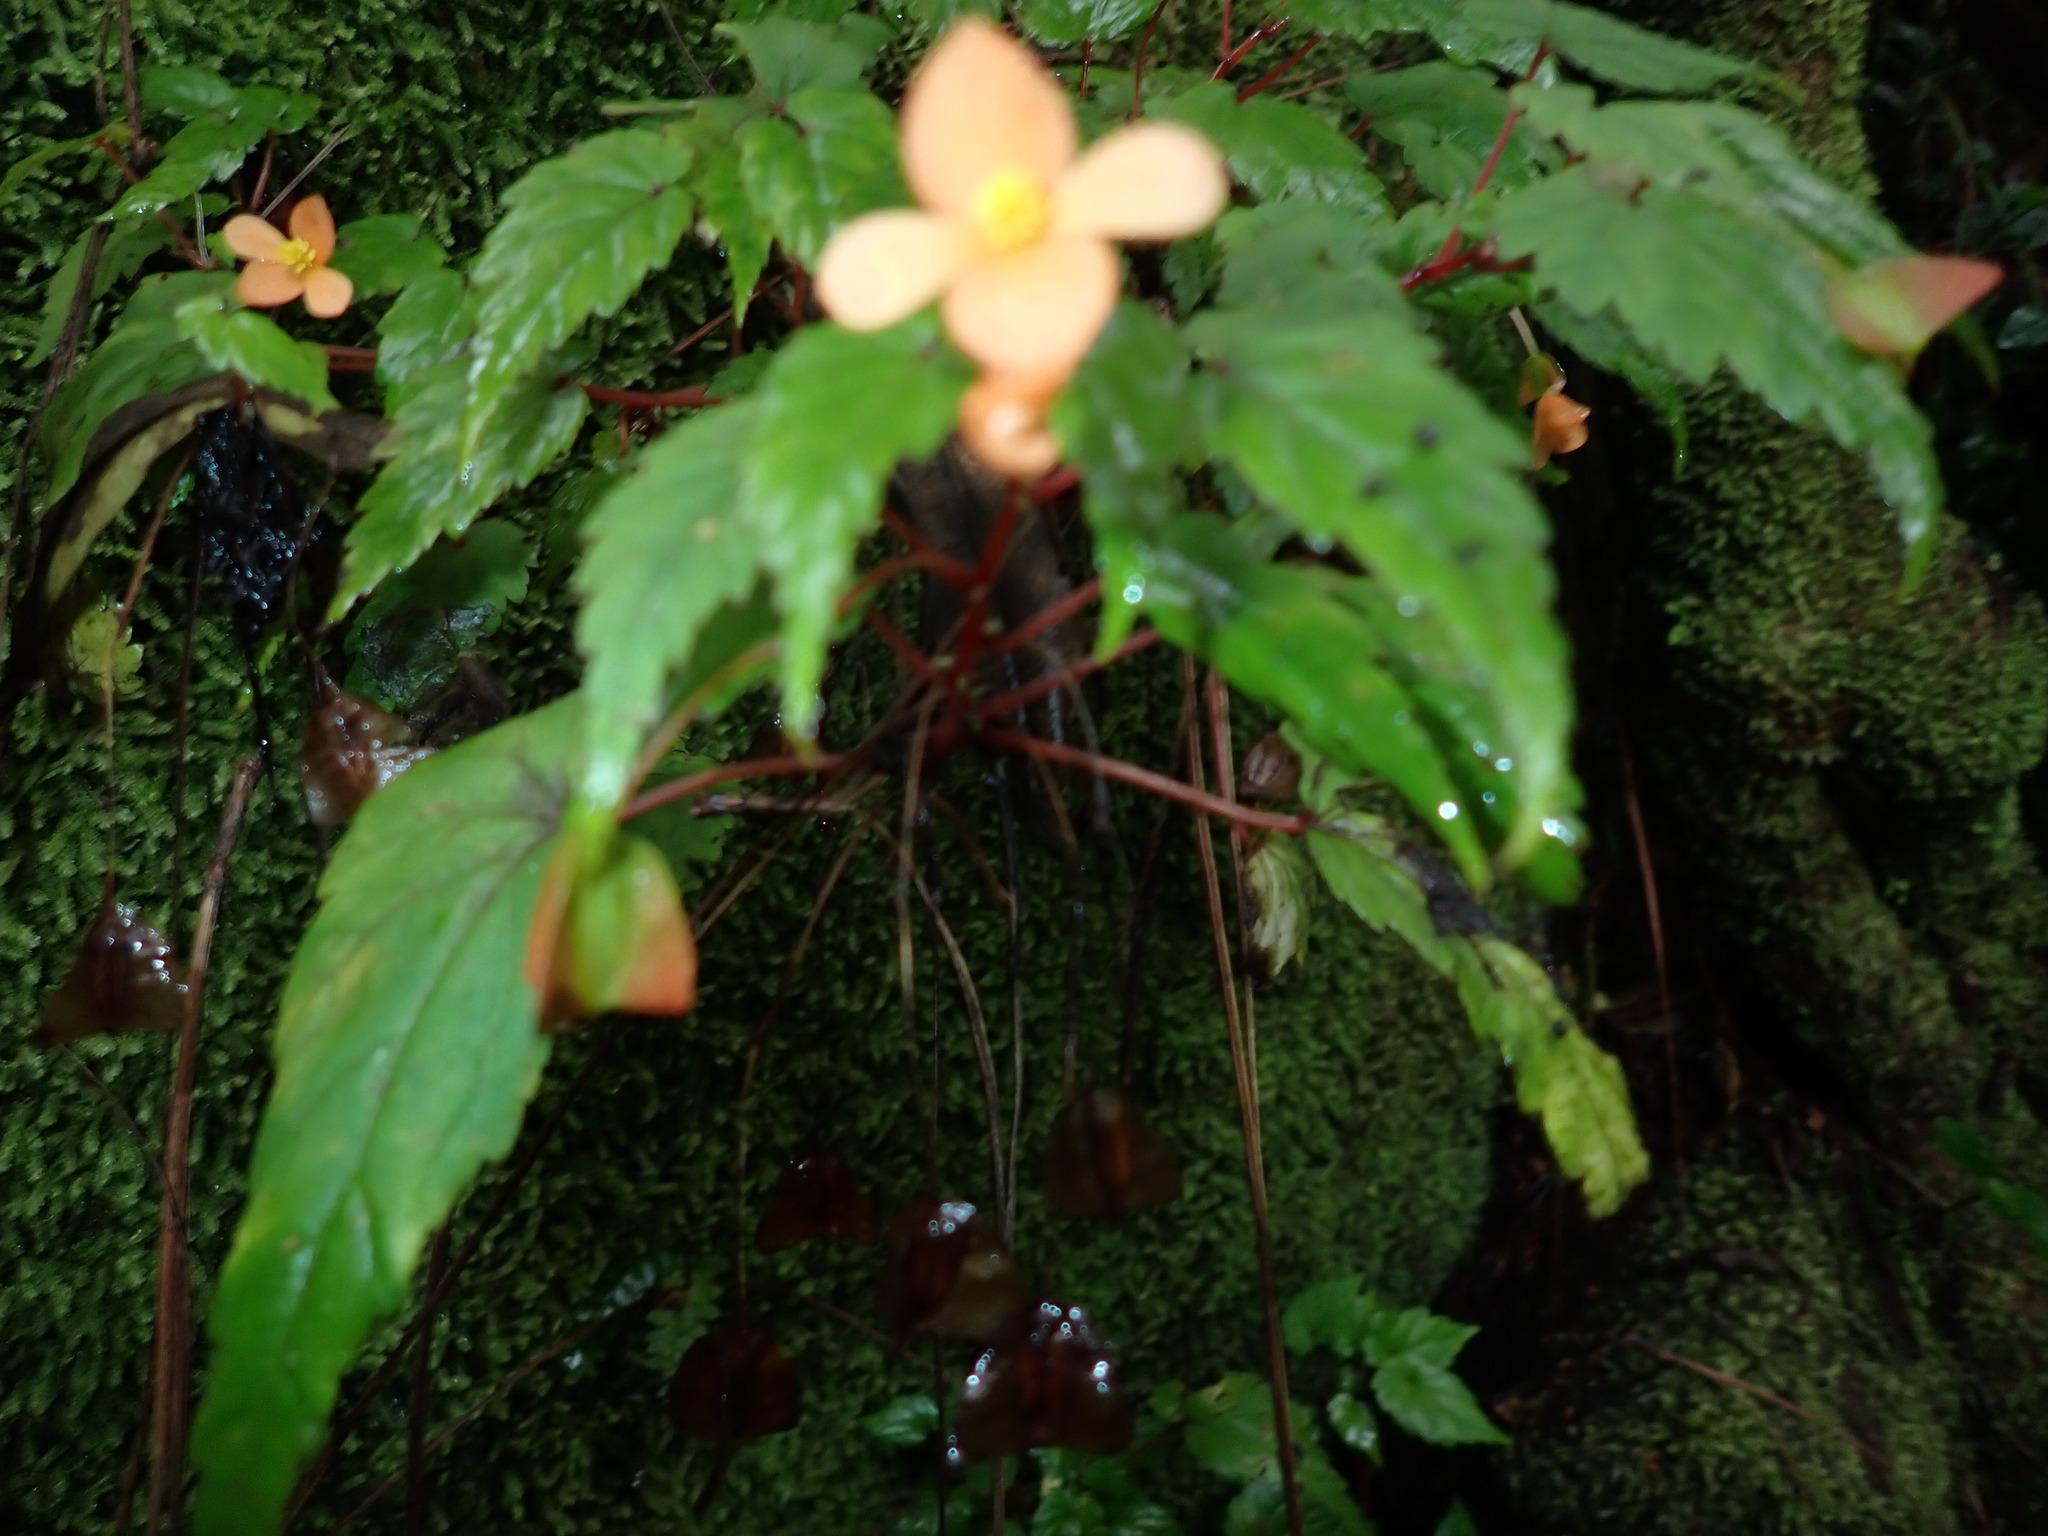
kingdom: Plantae
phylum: Tracheophyta
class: Magnoliopsida
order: Cucurbitales
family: Begoniaceae
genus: Begonia
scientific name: Begonia sutherlandii
